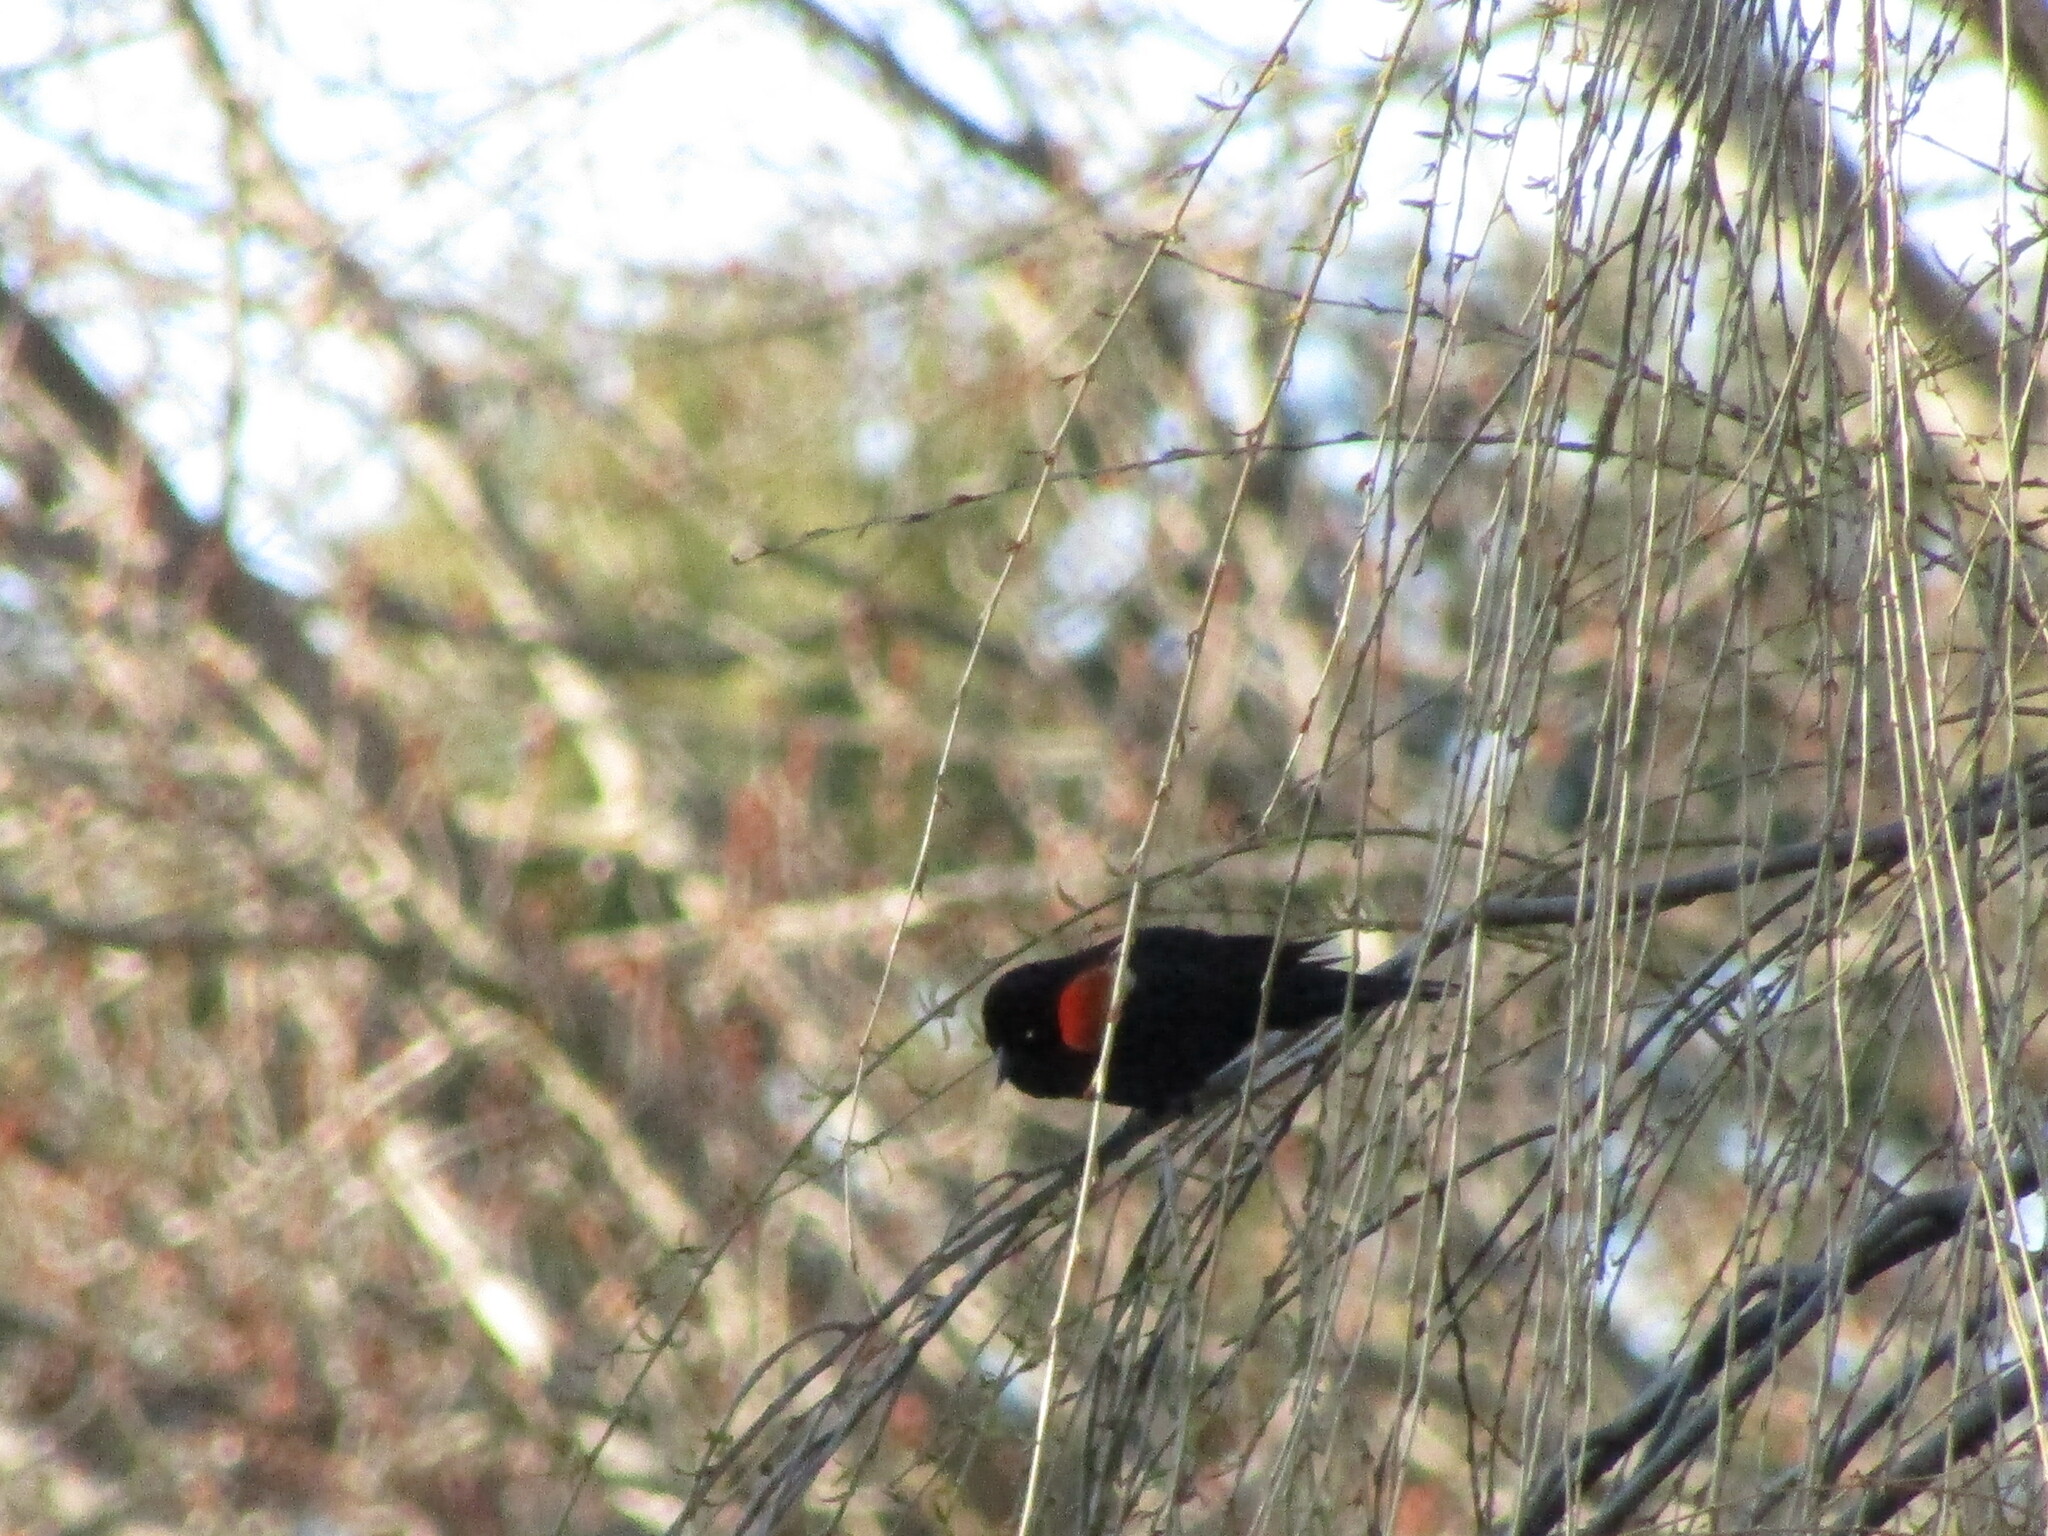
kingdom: Animalia
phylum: Chordata
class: Aves
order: Passeriformes
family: Icteridae
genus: Agelaius
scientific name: Agelaius phoeniceus
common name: Red-winged blackbird
